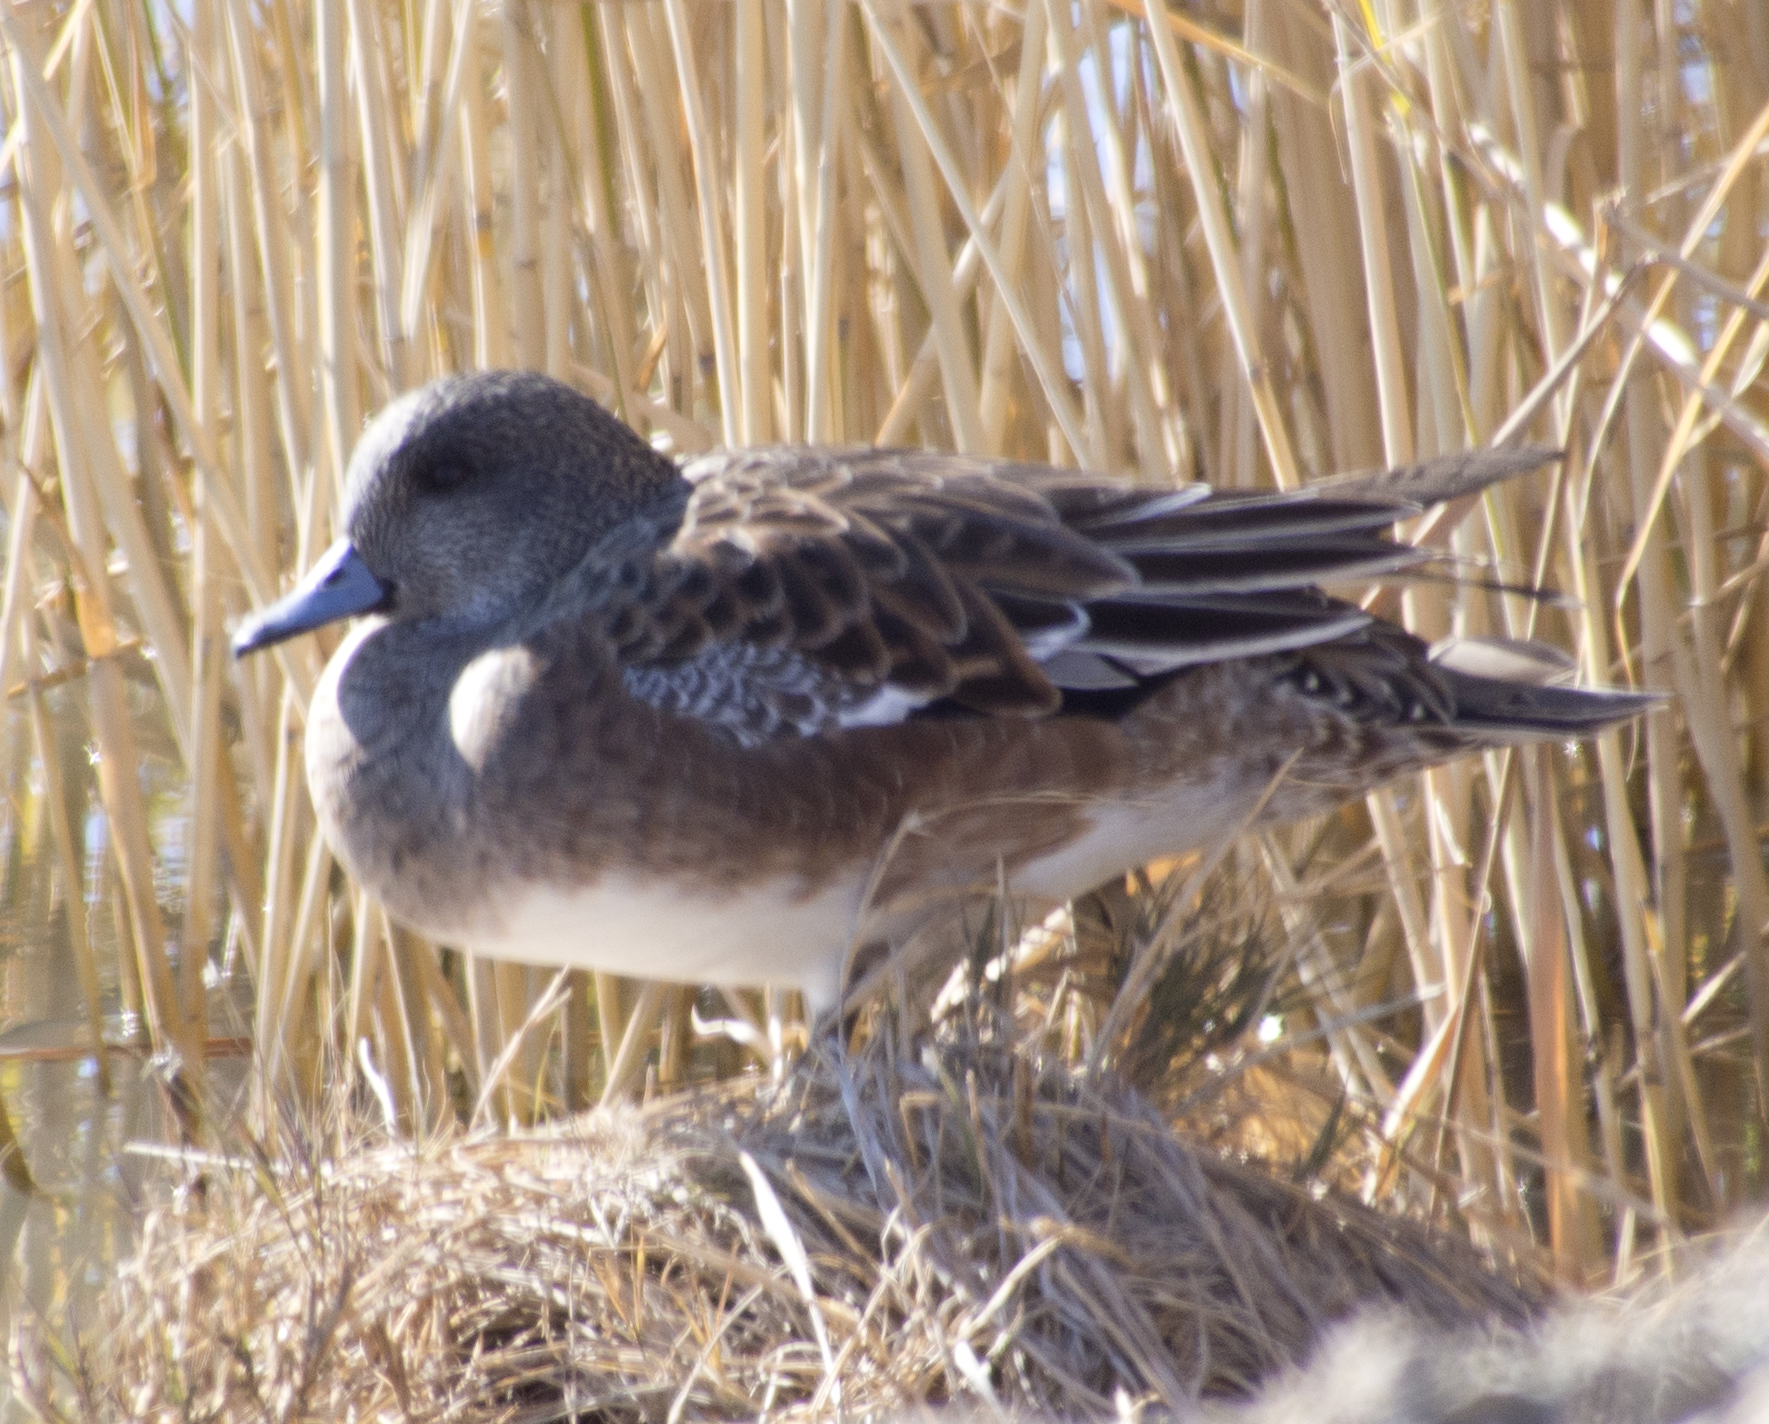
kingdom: Animalia
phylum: Chordata
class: Aves
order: Anseriformes
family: Anatidae
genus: Mareca
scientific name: Mareca americana
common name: American wigeon
